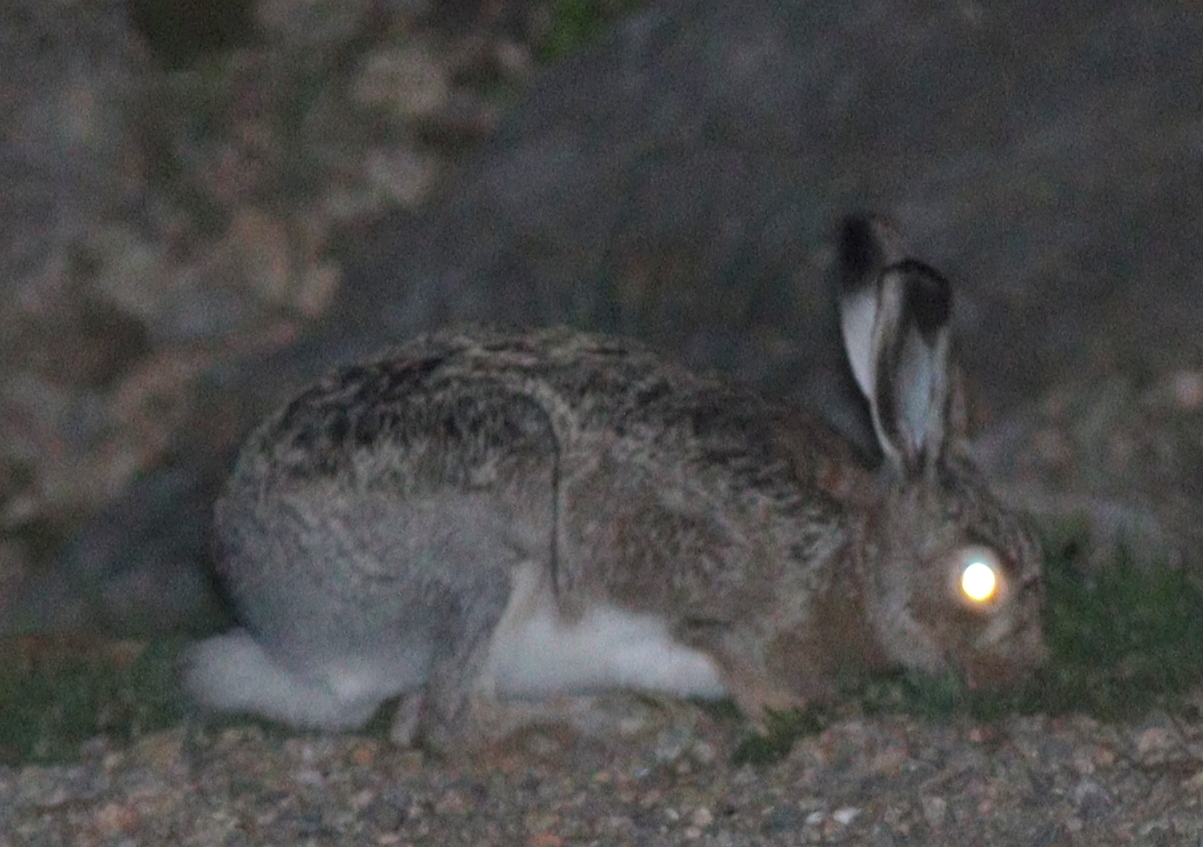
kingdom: Animalia
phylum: Chordata
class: Mammalia
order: Lagomorpha
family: Leporidae
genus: Lepus
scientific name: Lepus europaeus
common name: European hare
